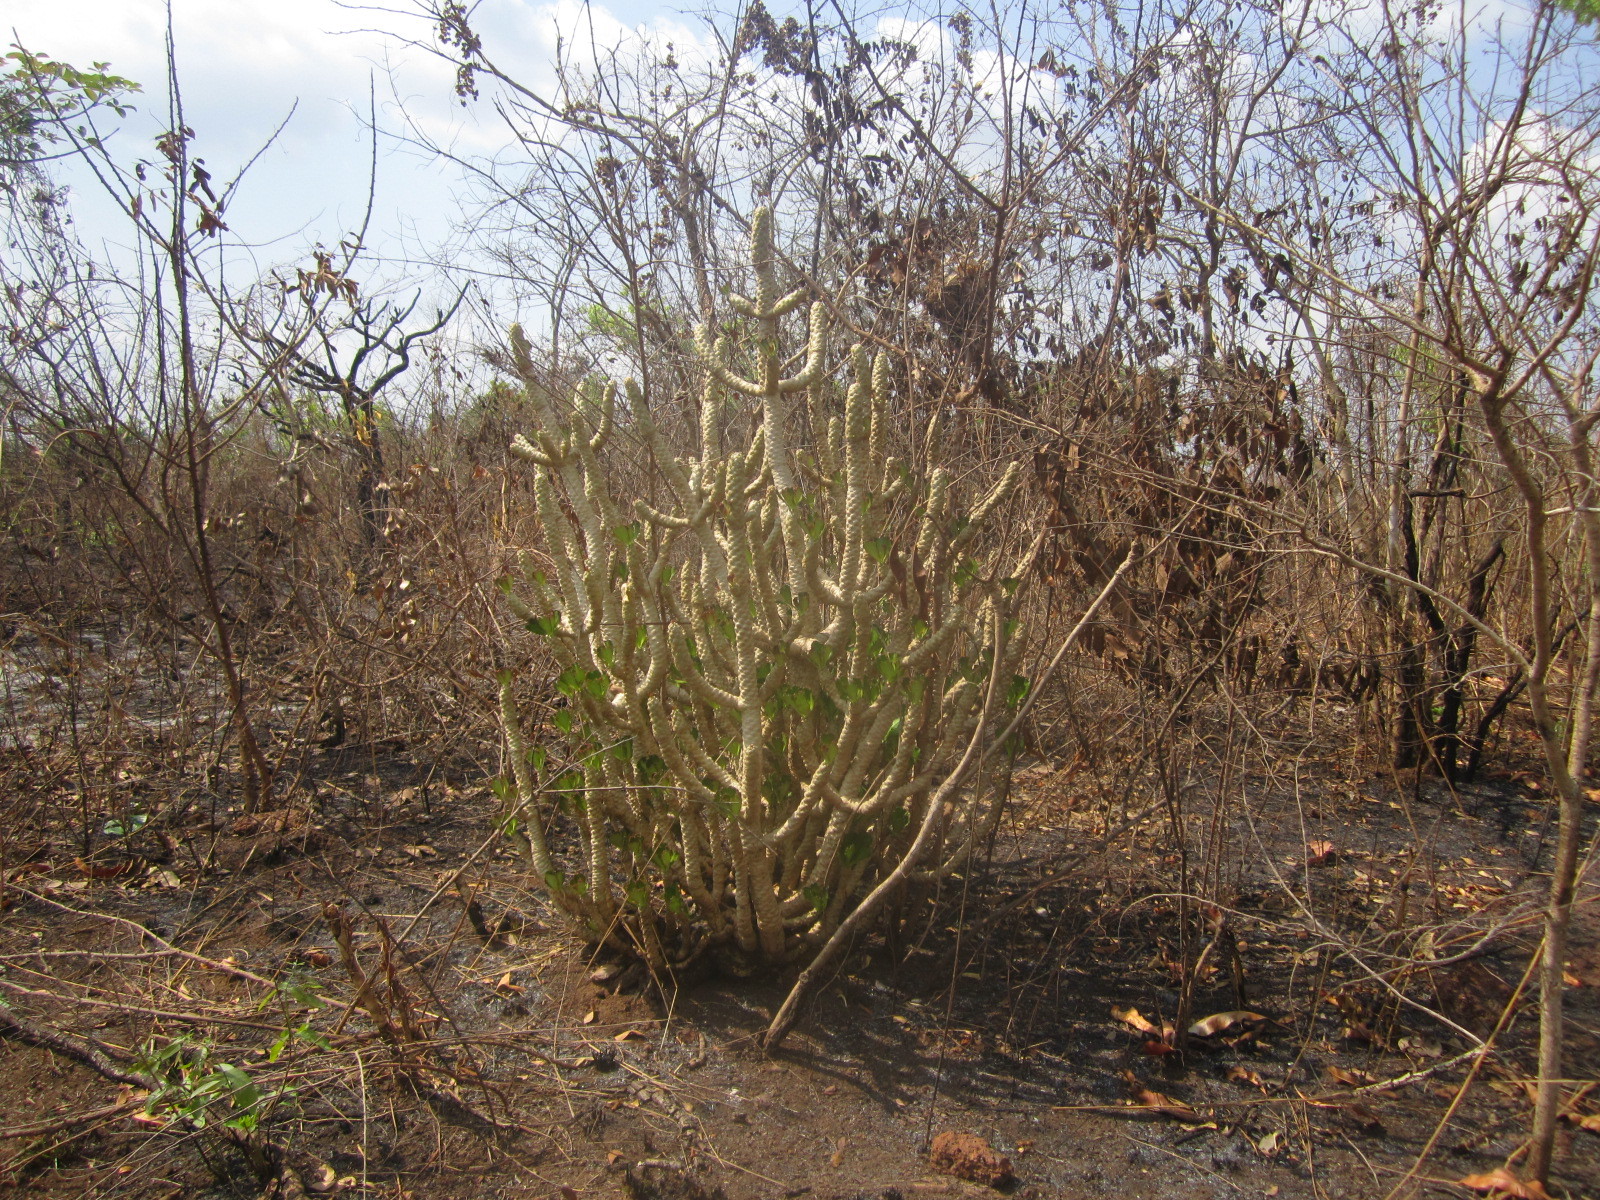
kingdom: Plantae
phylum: Tracheophyta
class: Magnoliopsida
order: Malpighiales
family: Euphorbiaceae
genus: Euphorbia
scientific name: Euphorbia poissonii
